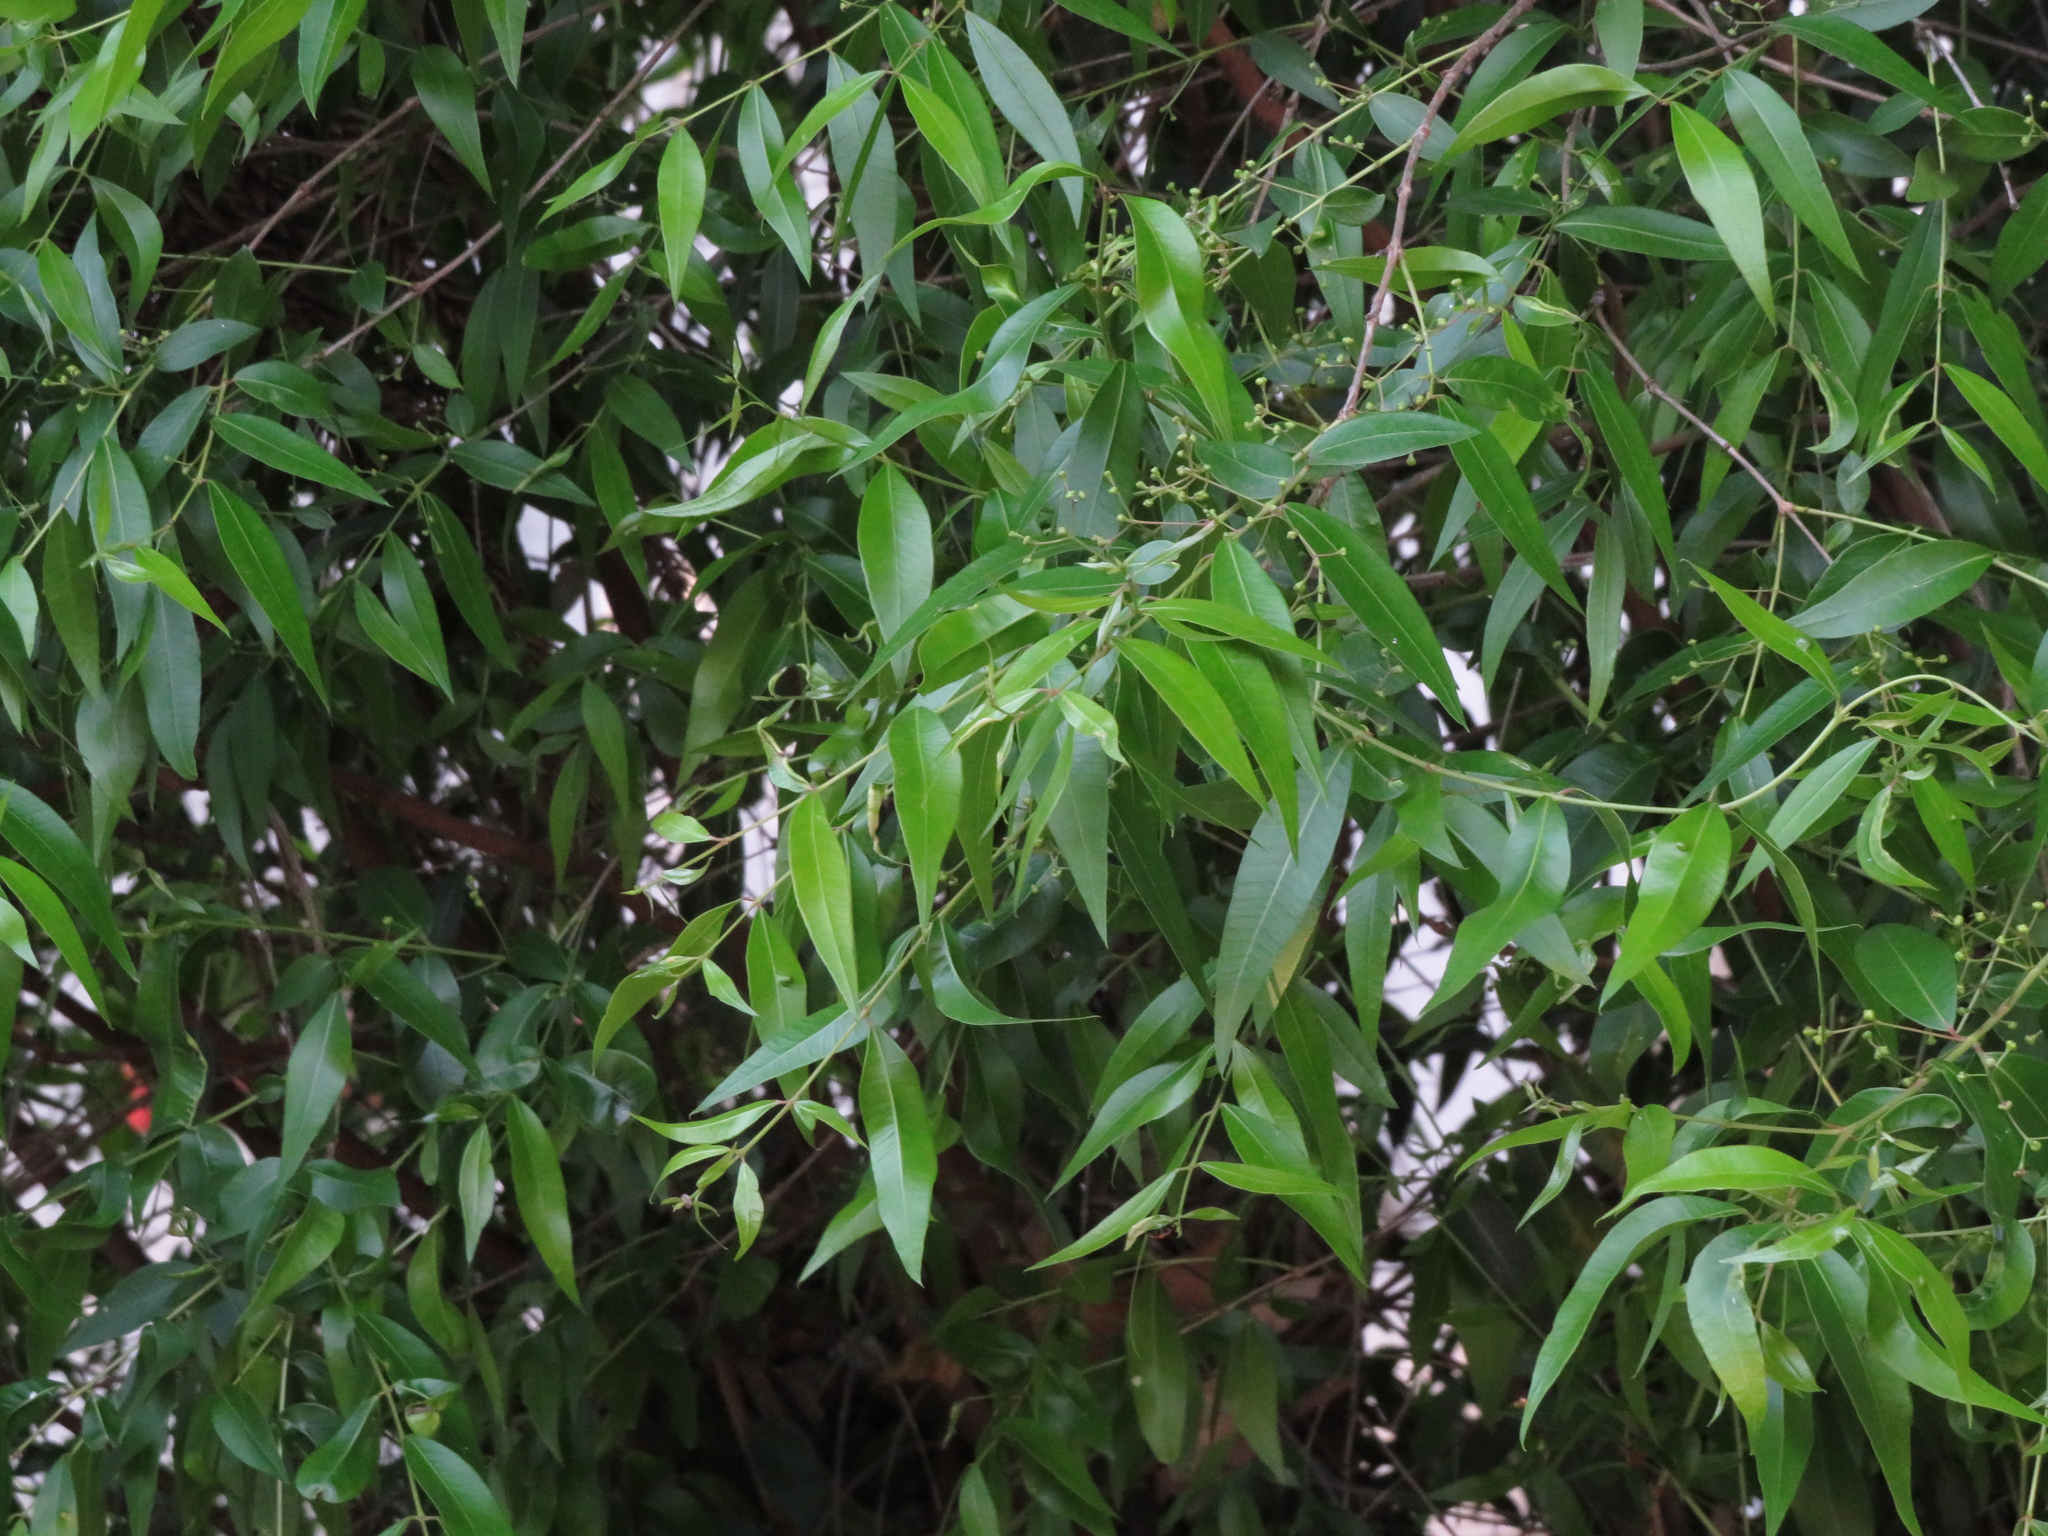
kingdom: Plantae
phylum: Tracheophyta
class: Magnoliopsida
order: Myrtales
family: Myrtaceae
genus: Blepharocalyx
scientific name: Blepharocalyx salicifolius
